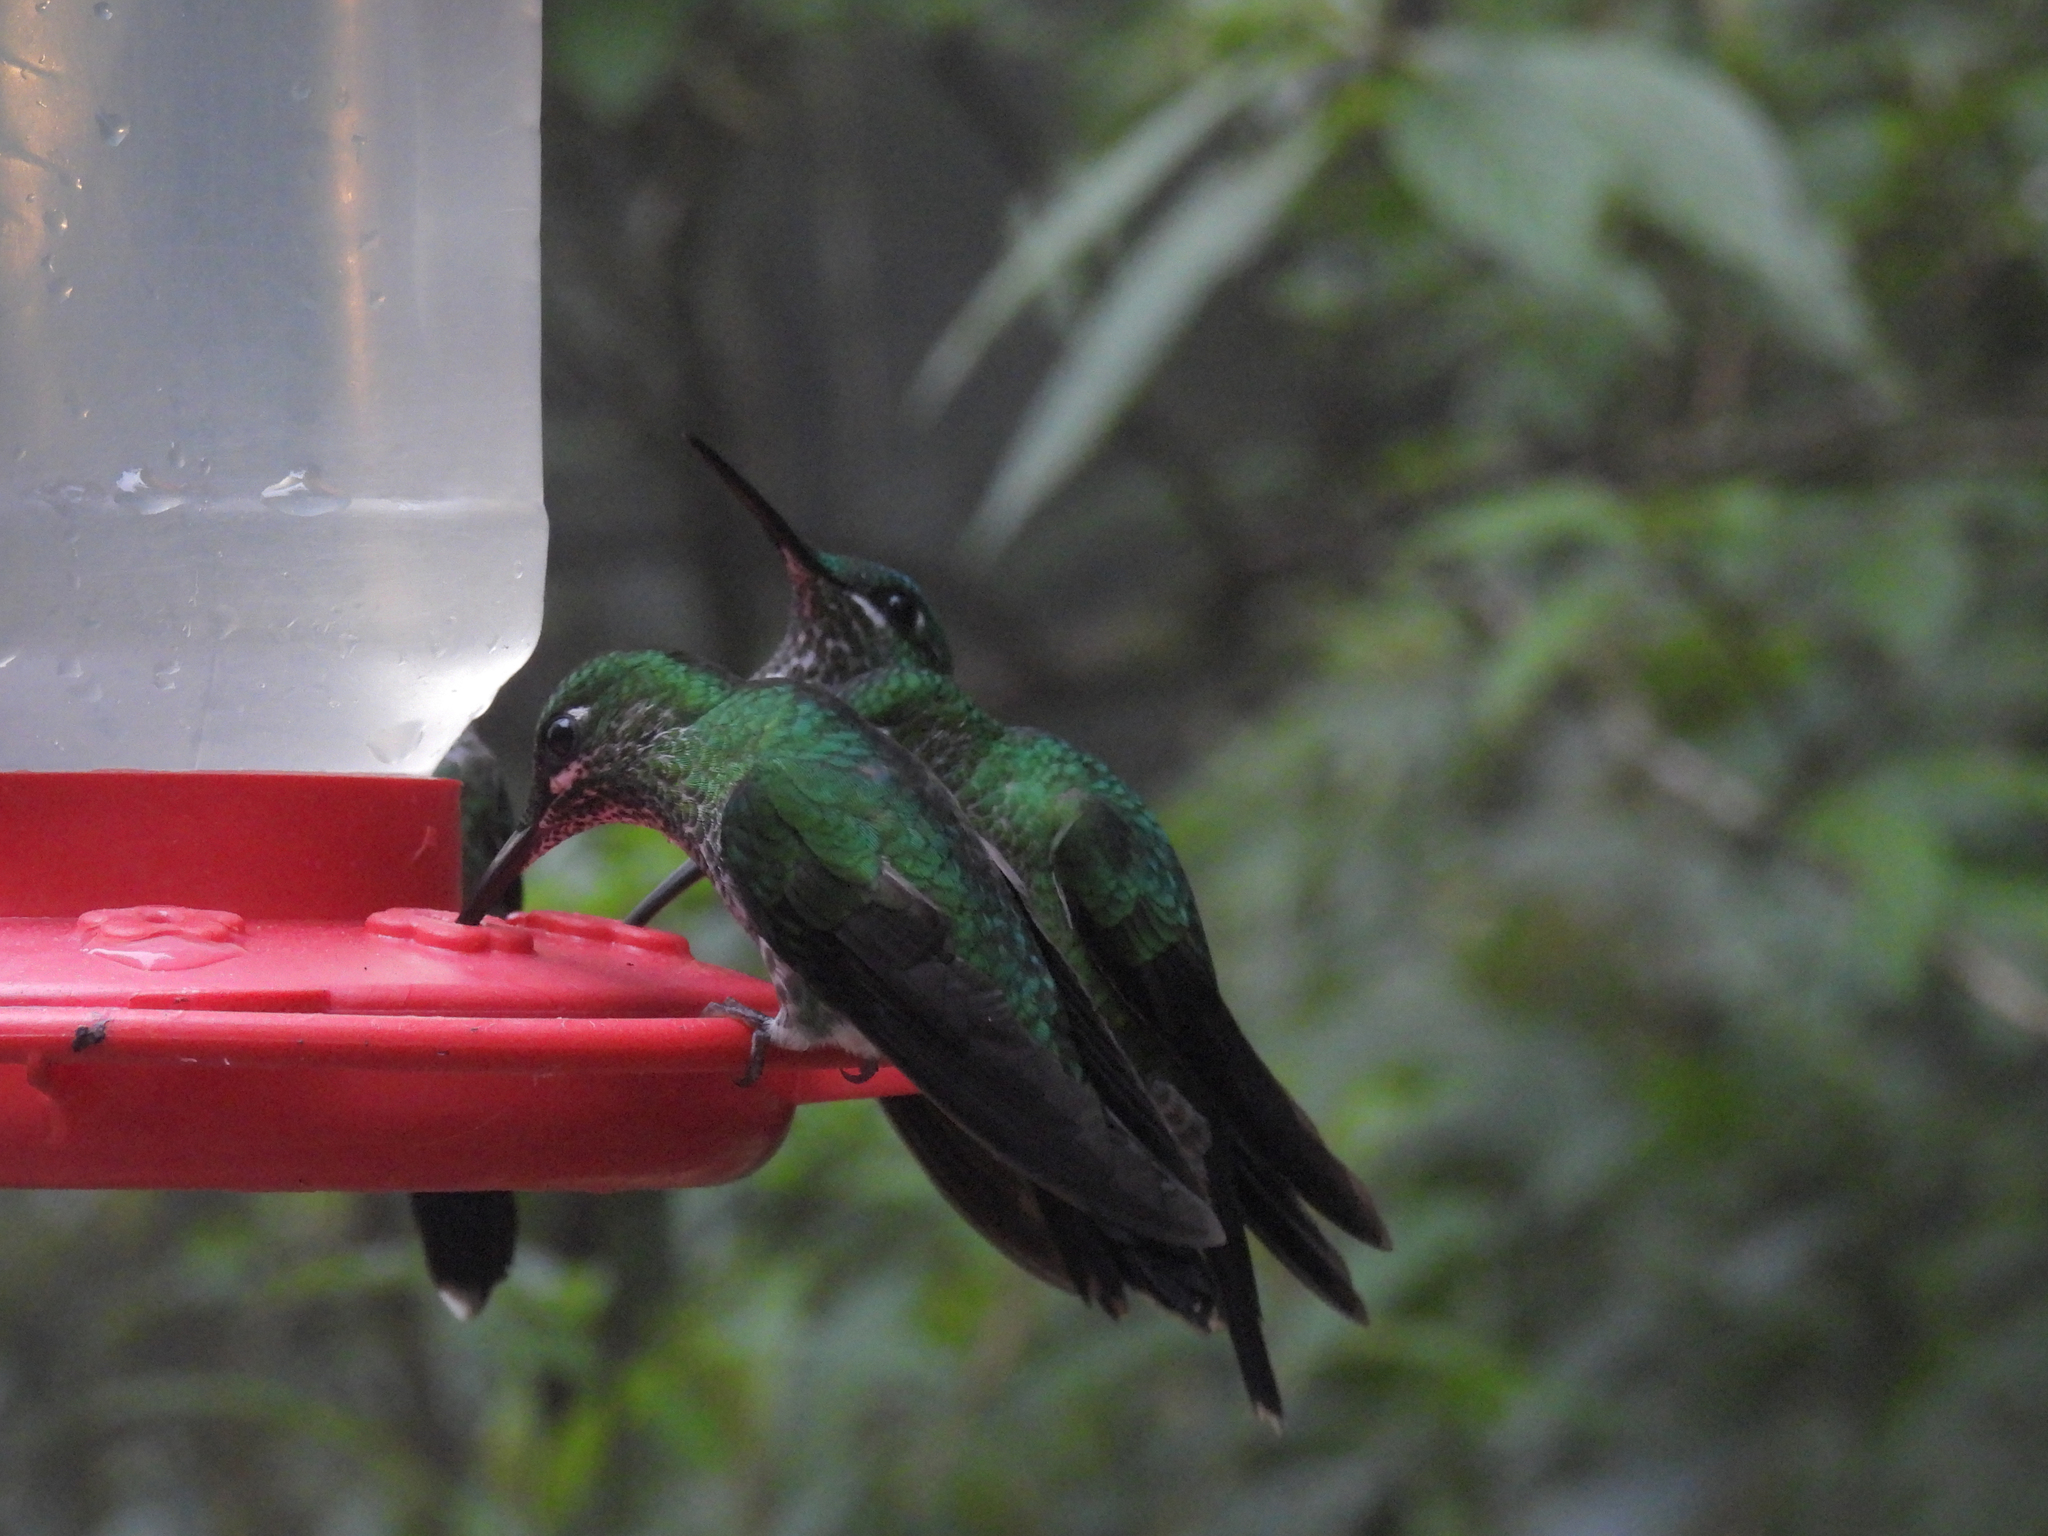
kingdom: Animalia
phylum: Chordata
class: Aves
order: Apodiformes
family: Trochilidae
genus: Heliodoxa
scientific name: Heliodoxa jacula
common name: Green-crowned brilliant
